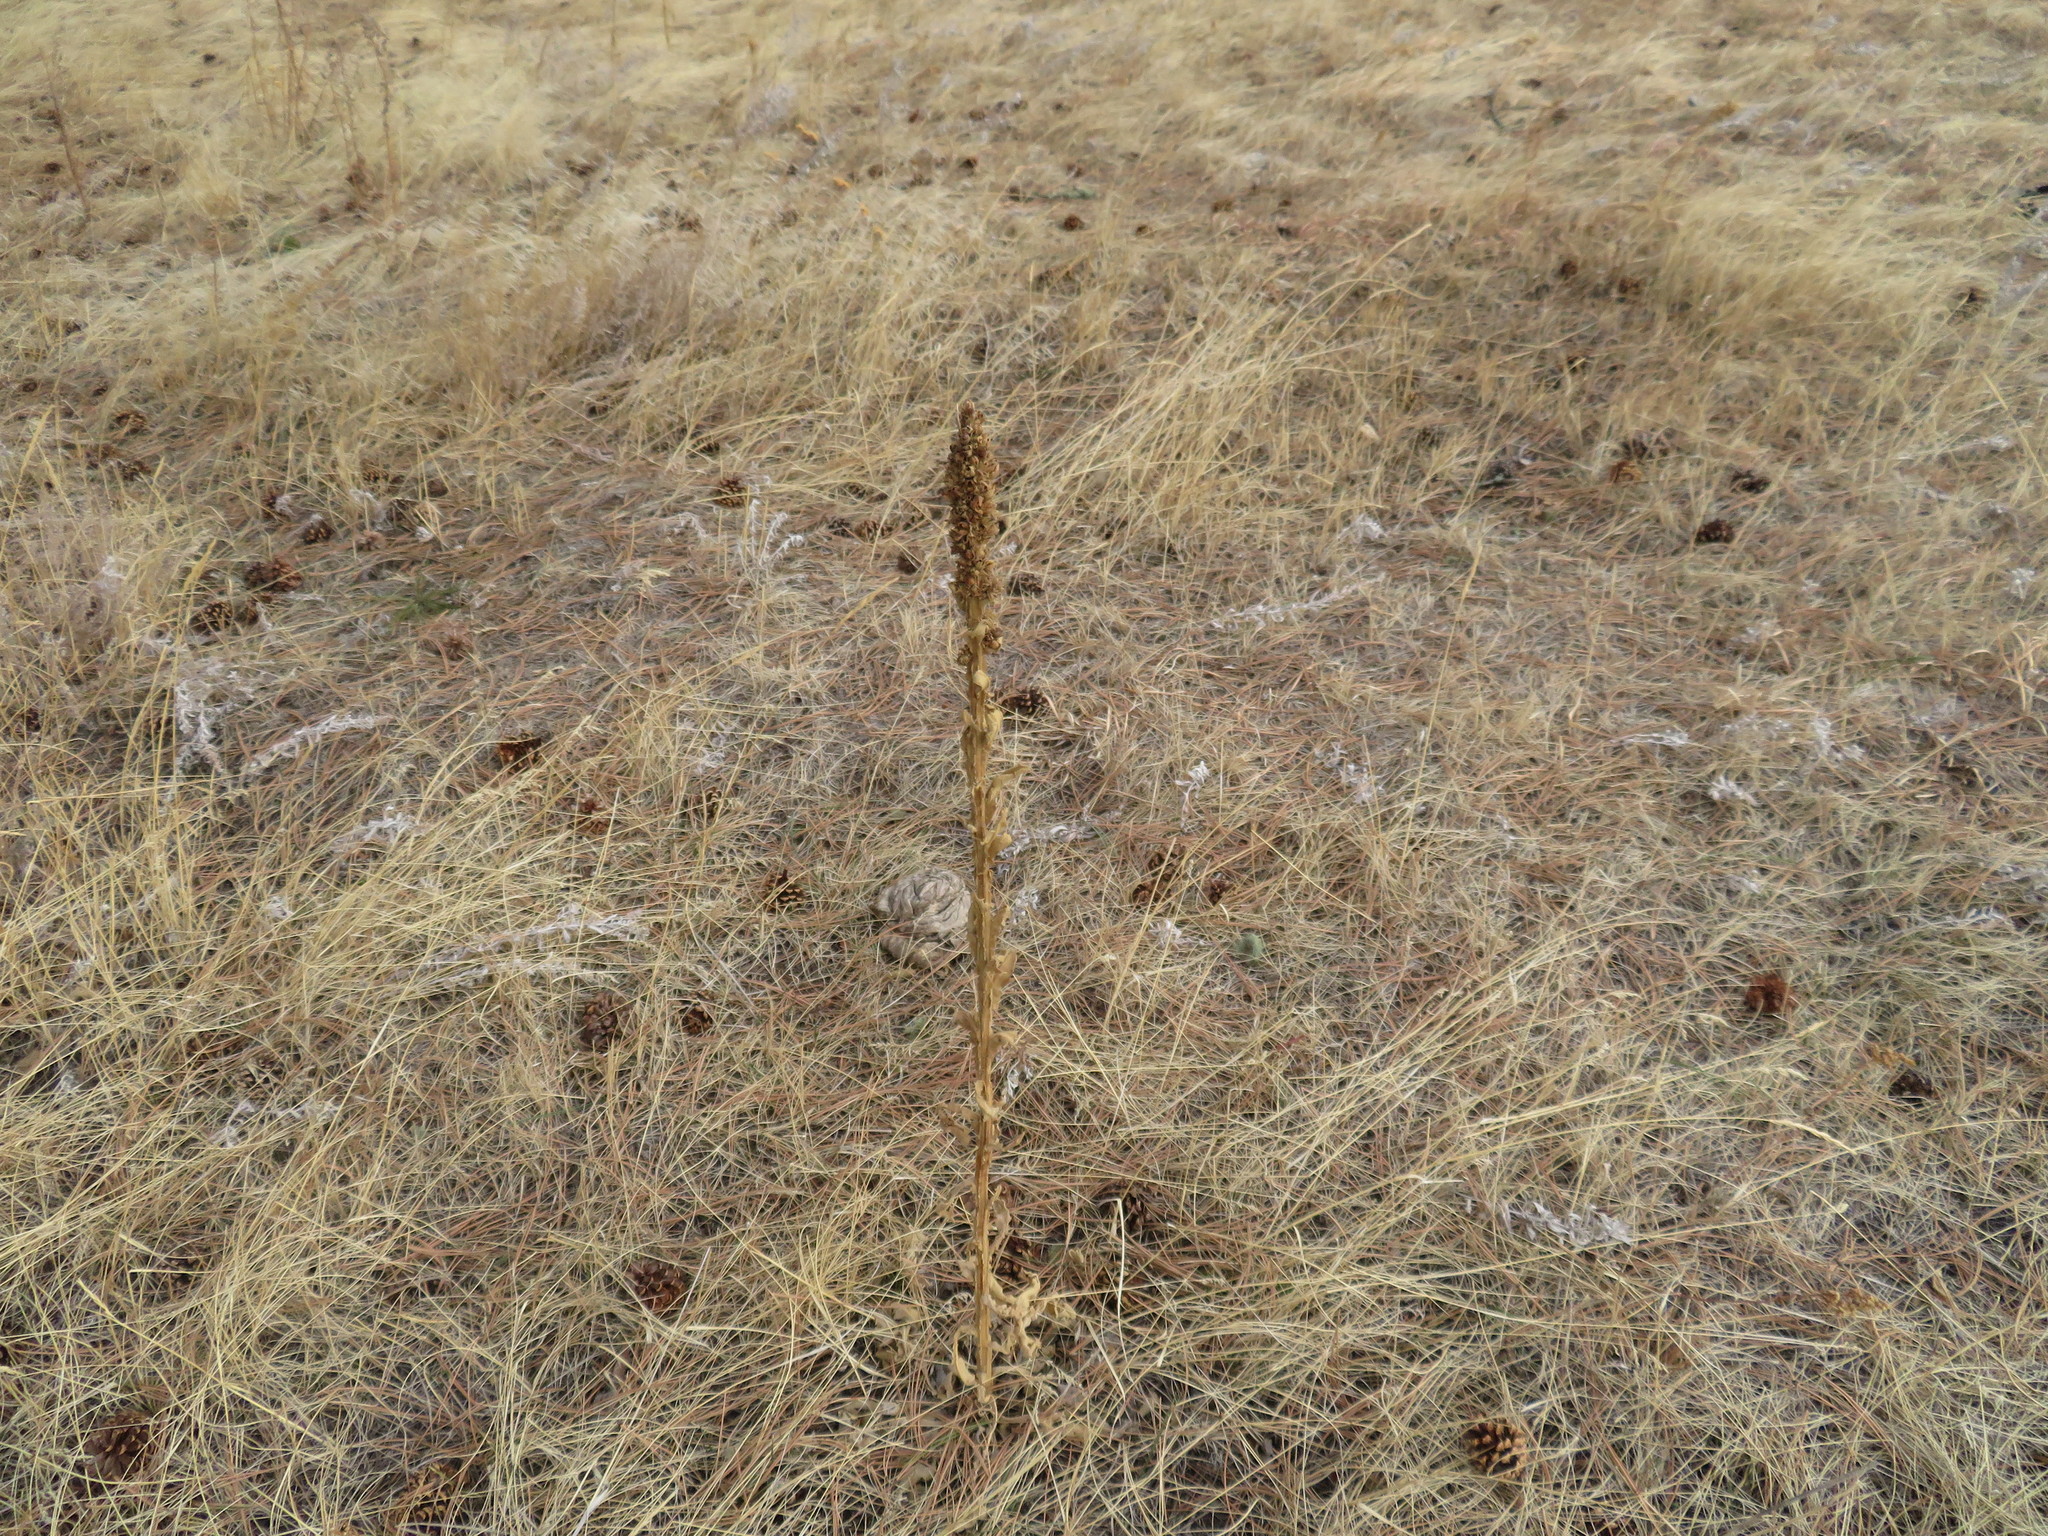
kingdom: Plantae
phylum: Tracheophyta
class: Magnoliopsida
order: Lamiales
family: Scrophulariaceae
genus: Verbascum
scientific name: Verbascum thapsus
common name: Common mullein
